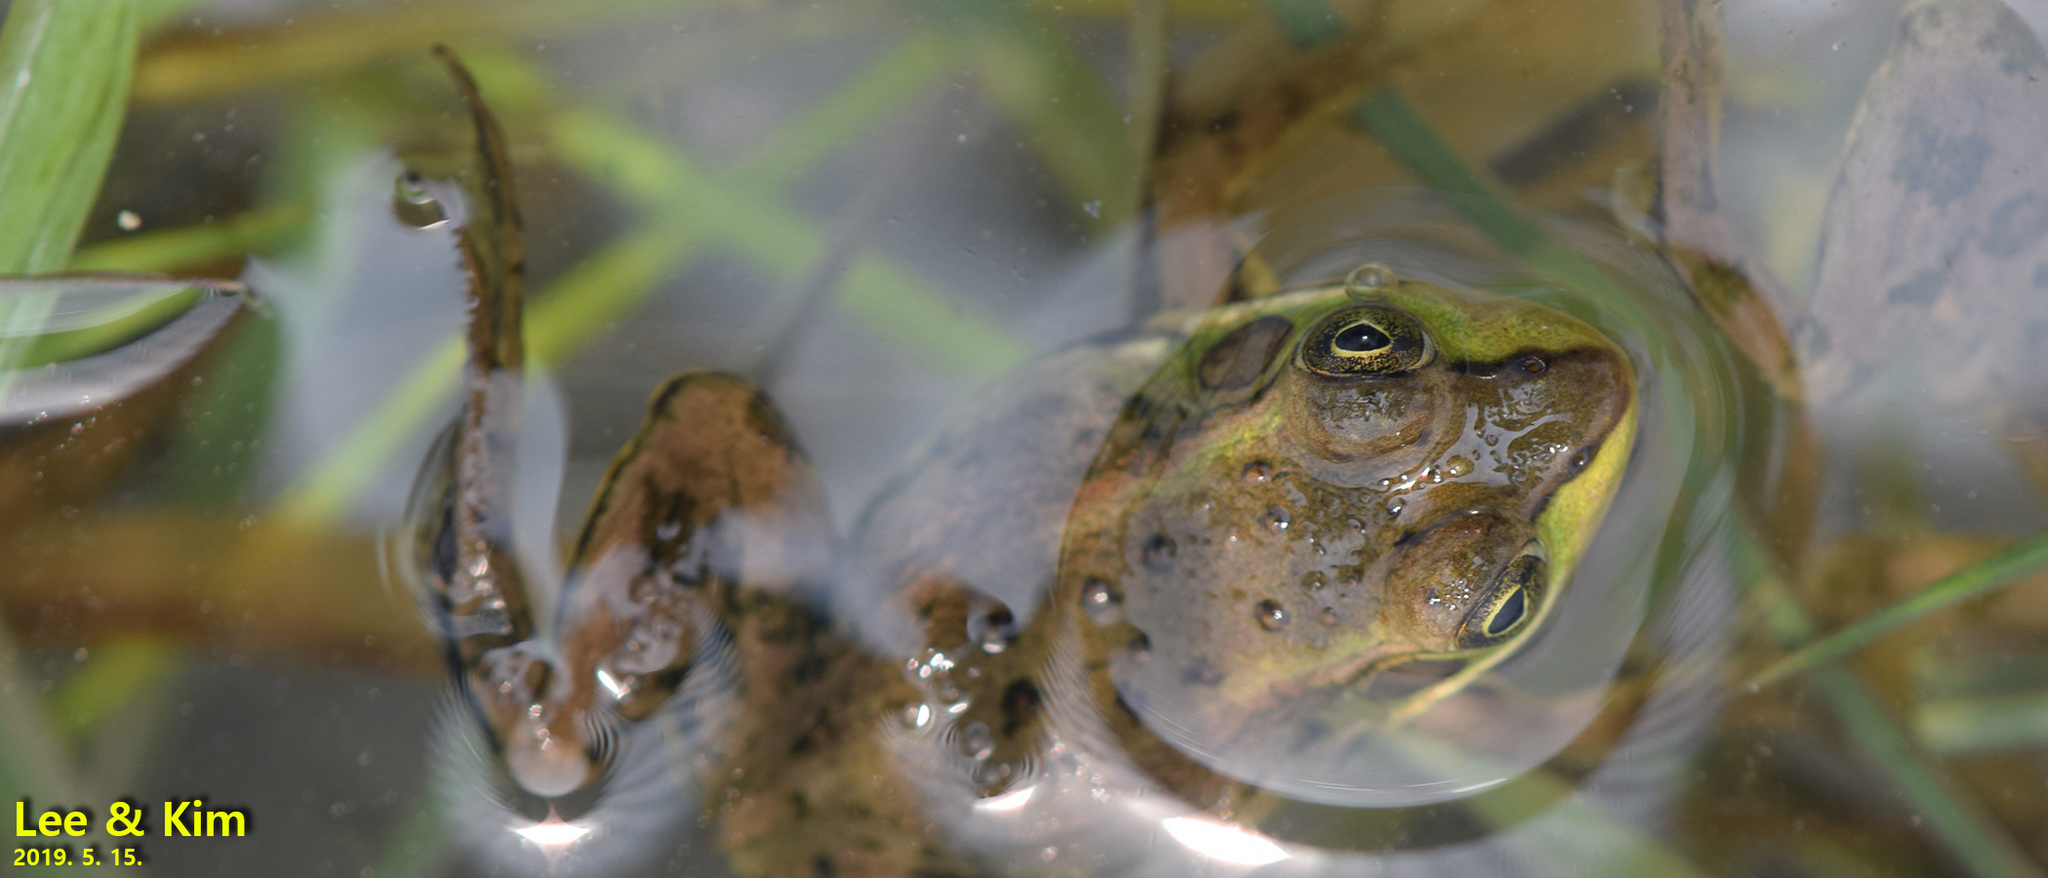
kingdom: Animalia
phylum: Chordata
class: Amphibia
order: Anura
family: Ranidae
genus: Pelophylax
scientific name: Pelophylax chosenicus
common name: Gold-spotted pond frog
